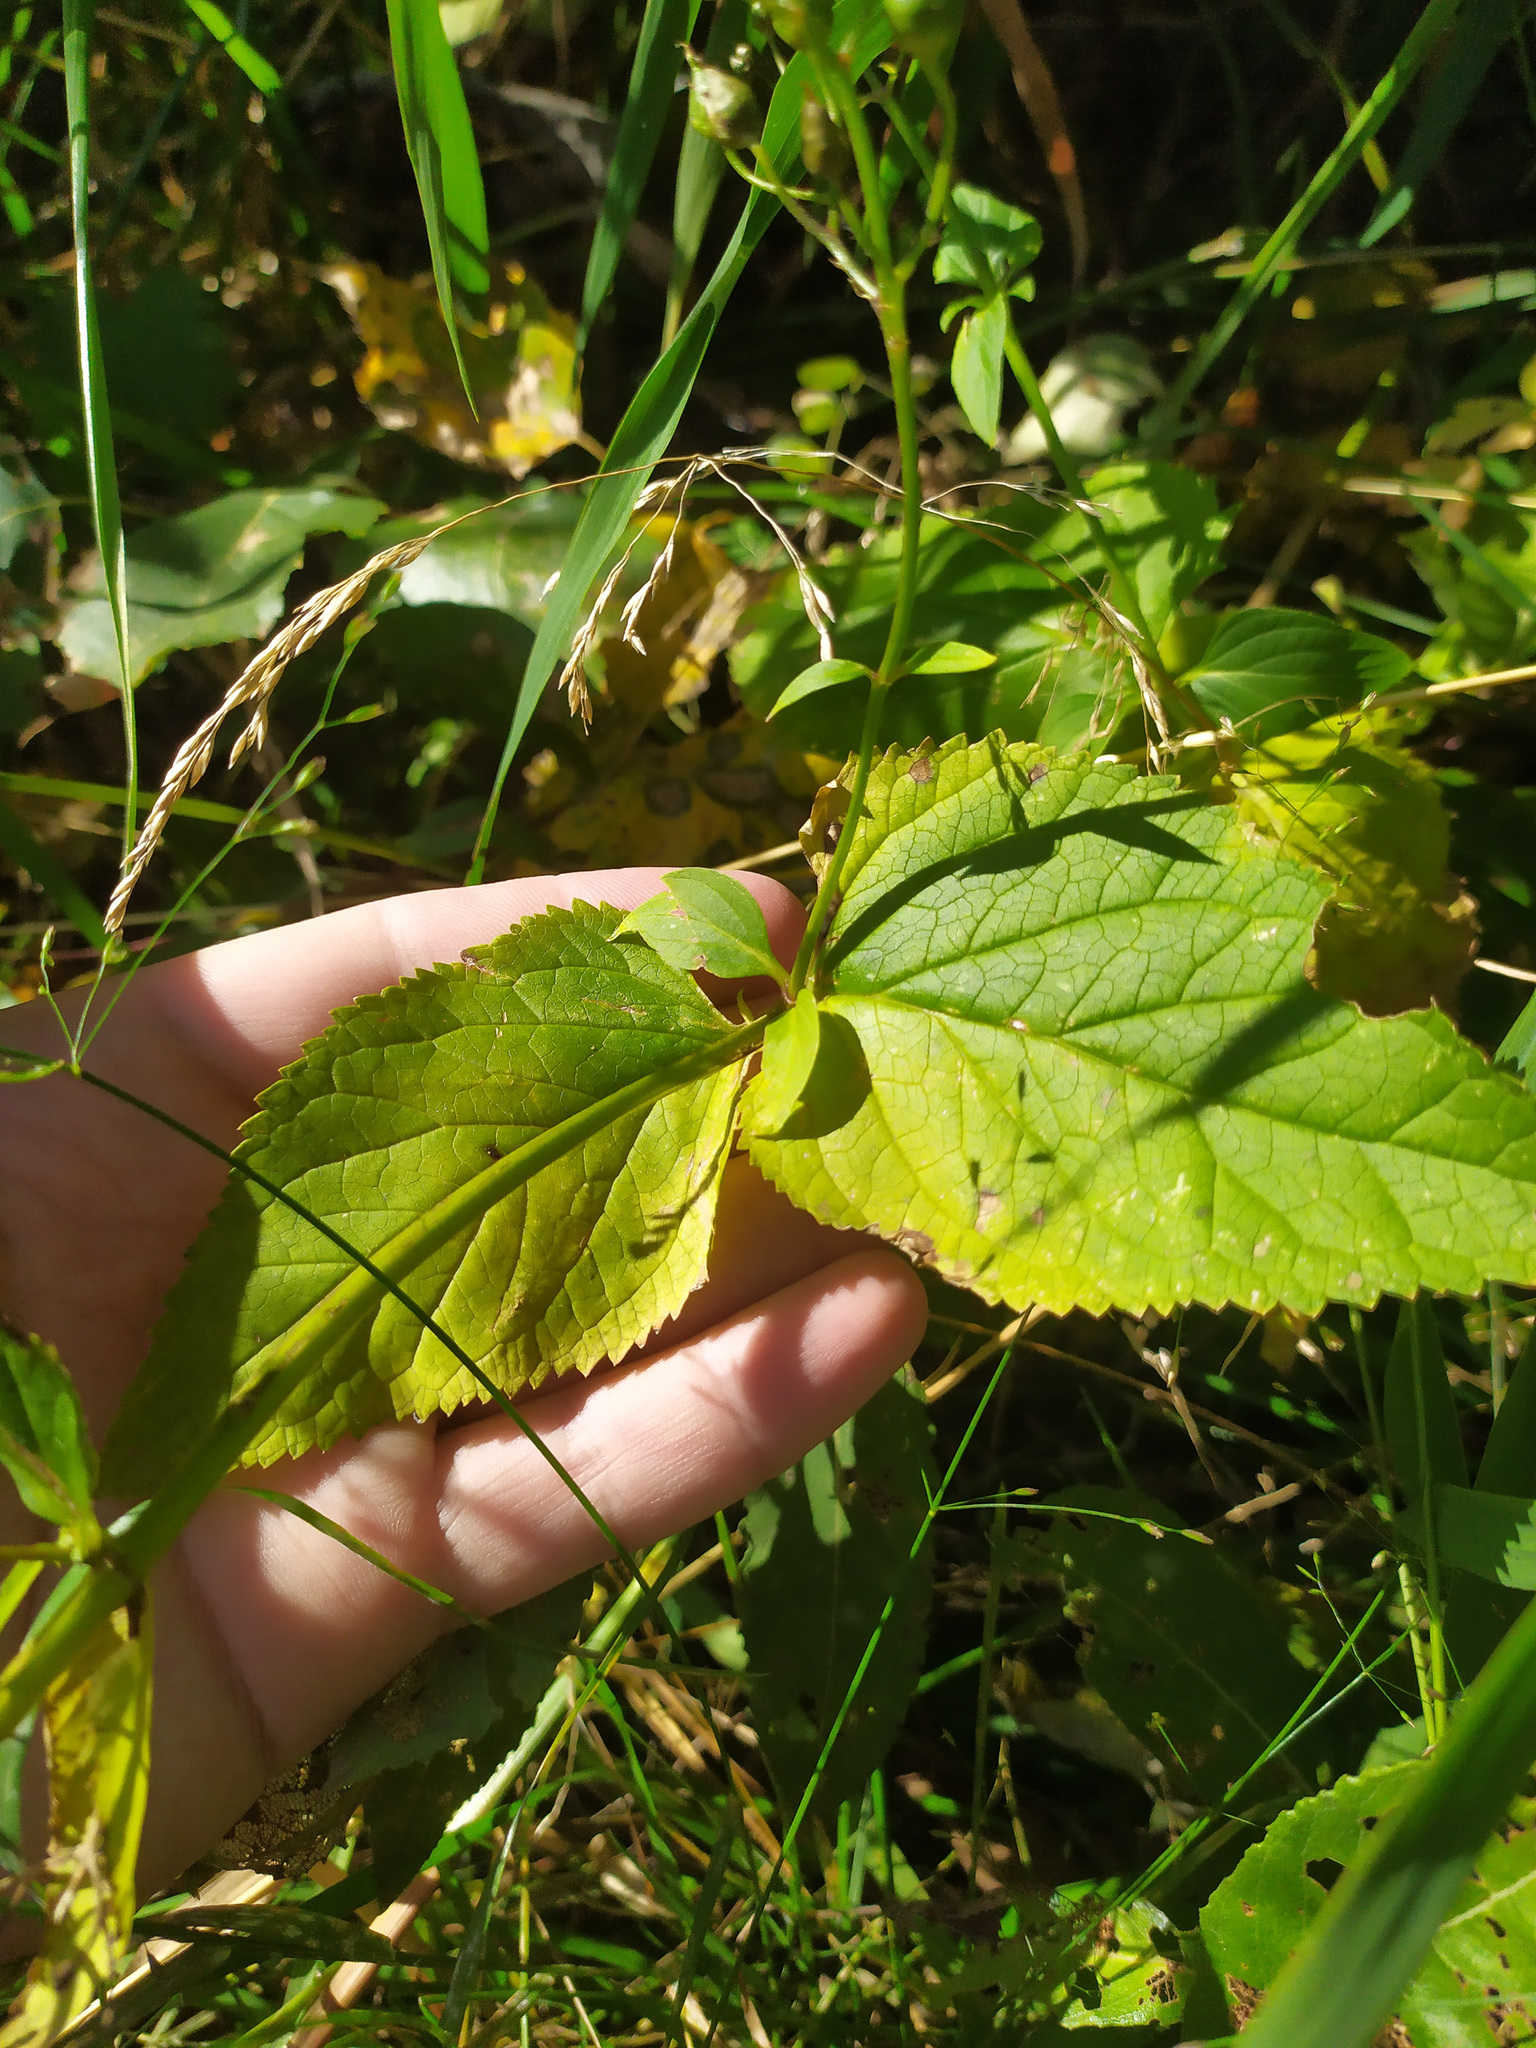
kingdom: Plantae
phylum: Tracheophyta
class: Magnoliopsida
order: Lamiales
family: Scrophulariaceae
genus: Scrophularia
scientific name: Scrophularia nodosa
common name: Common figwort
